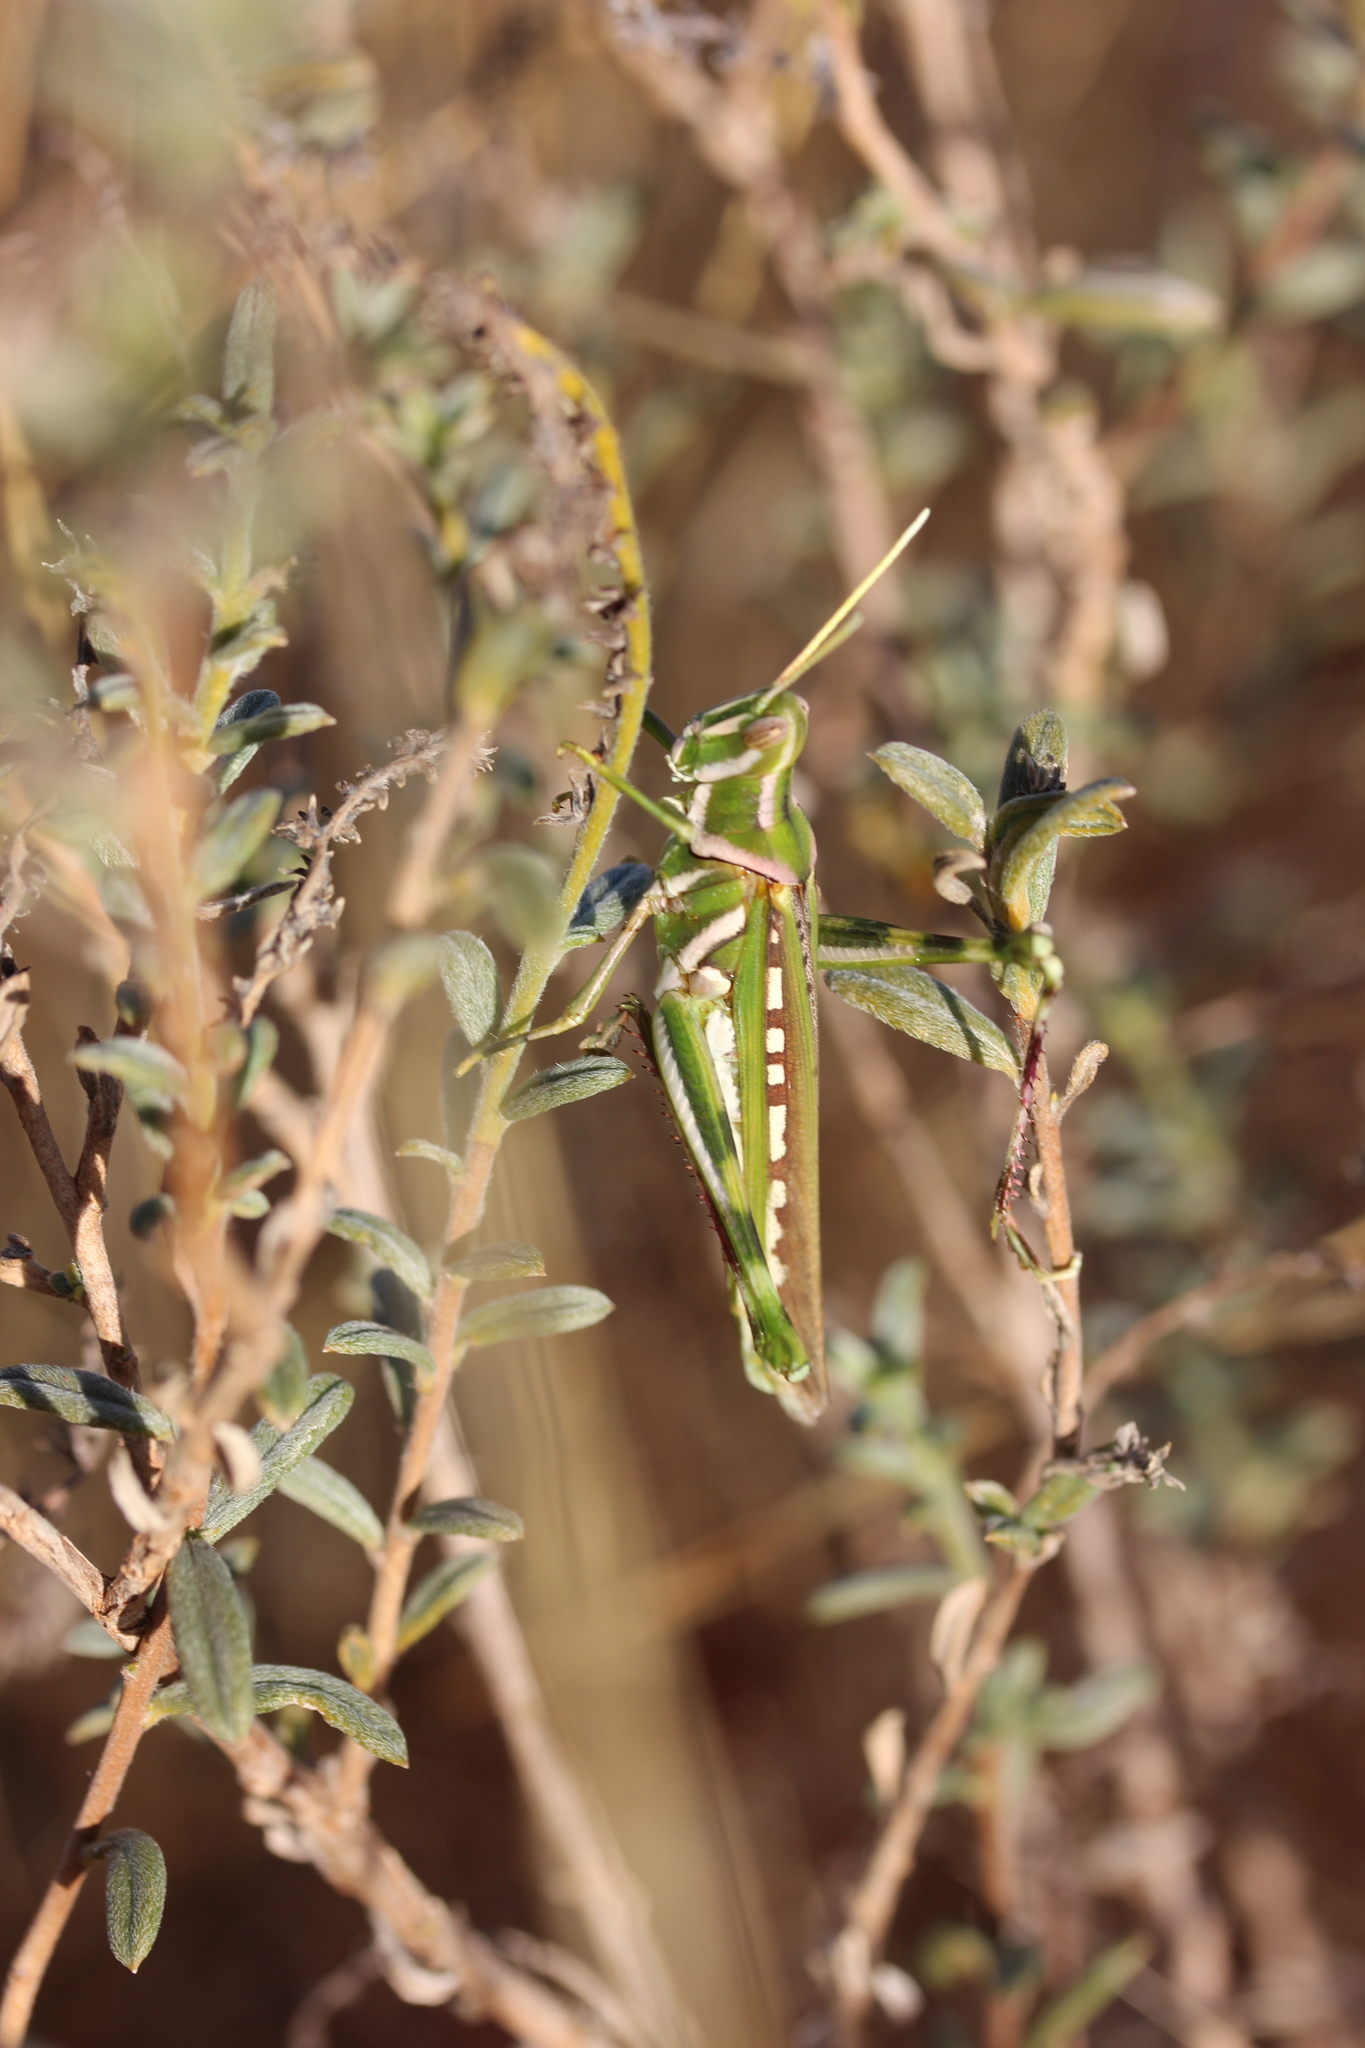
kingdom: Animalia
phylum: Arthropoda
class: Insecta
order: Orthoptera
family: Acrididae
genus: Histrioacrida
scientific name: Histrioacrida roseipennis
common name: Halgania grasshopper
